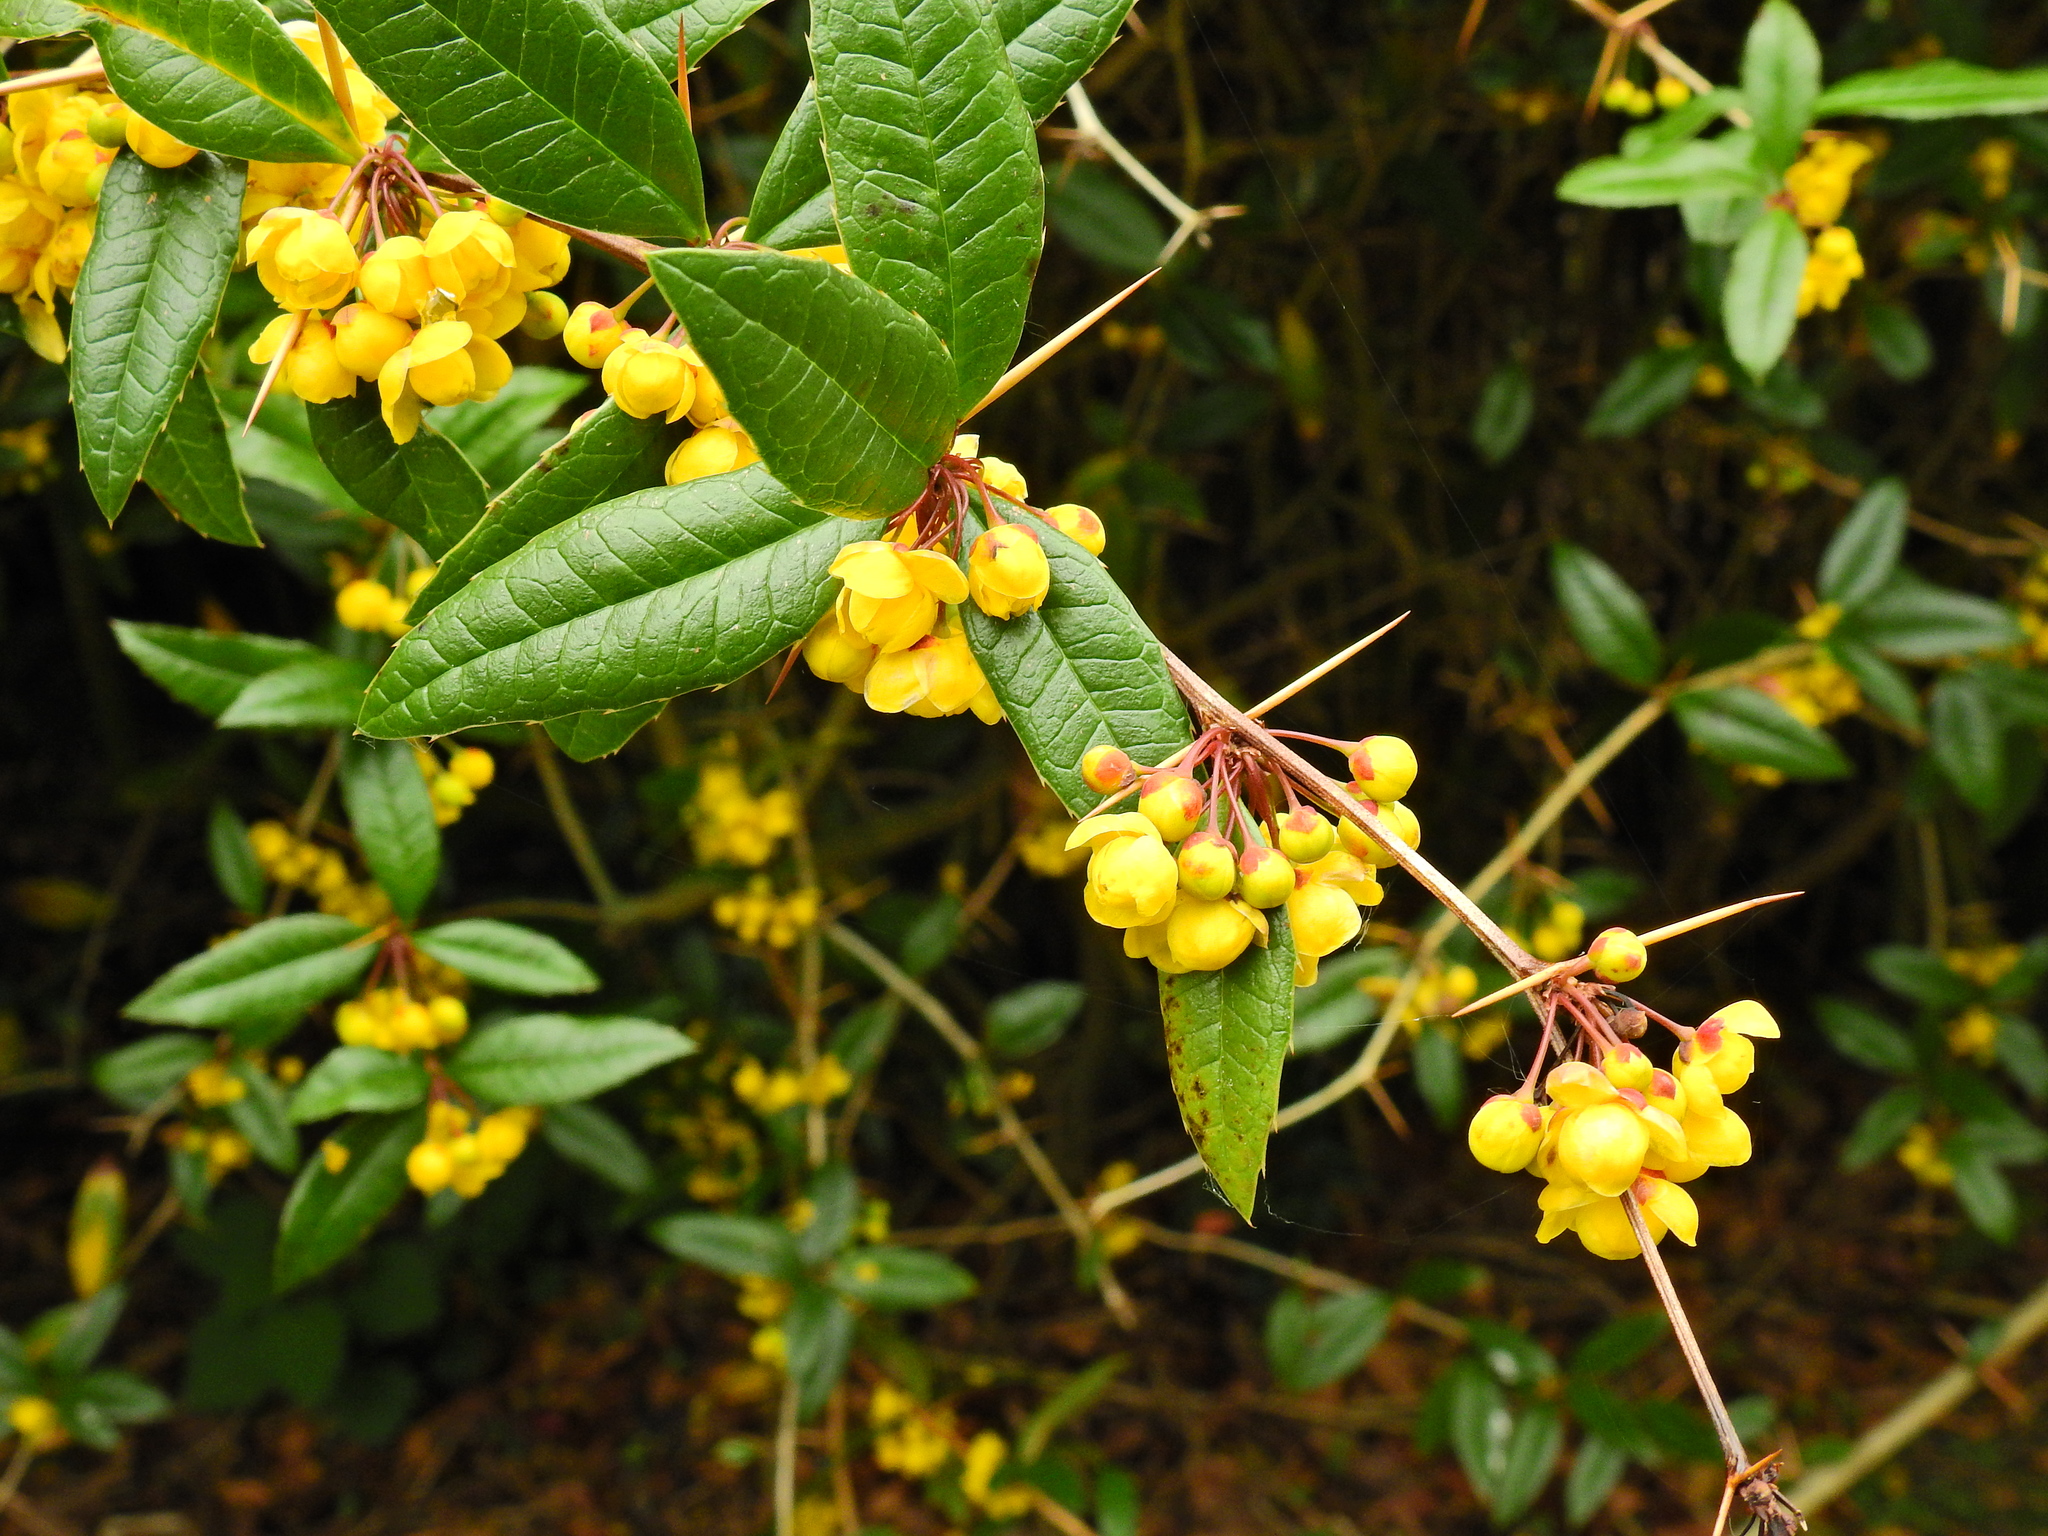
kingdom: Plantae
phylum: Tracheophyta
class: Magnoliopsida
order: Ranunculales
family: Berberidaceae
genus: Berberis
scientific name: Berberis julianae
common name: Wintergreen barberry
